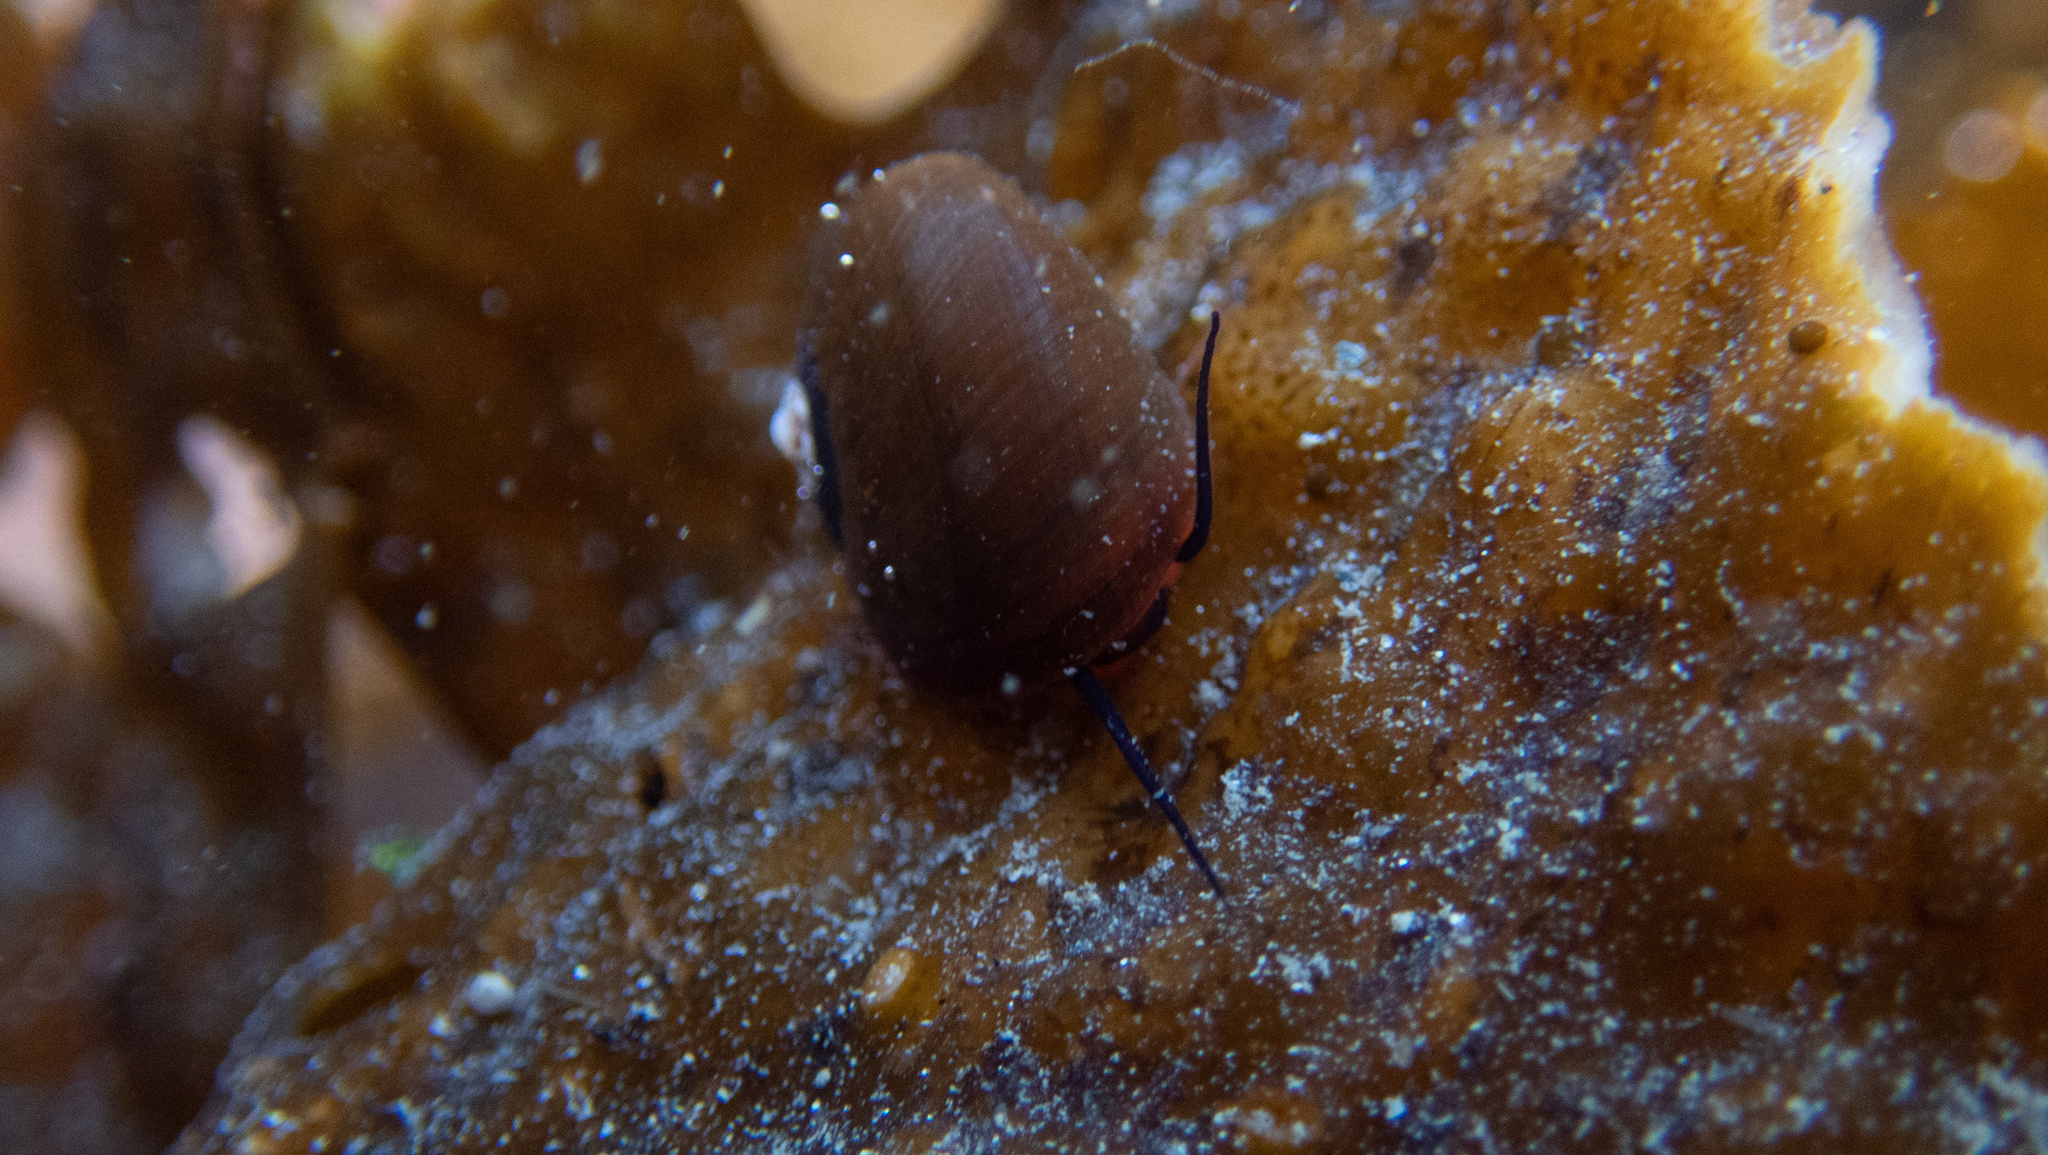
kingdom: Animalia
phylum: Mollusca
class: Gastropoda
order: Trochida
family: Tegulidae
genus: Norrisia
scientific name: Norrisia norrisii
